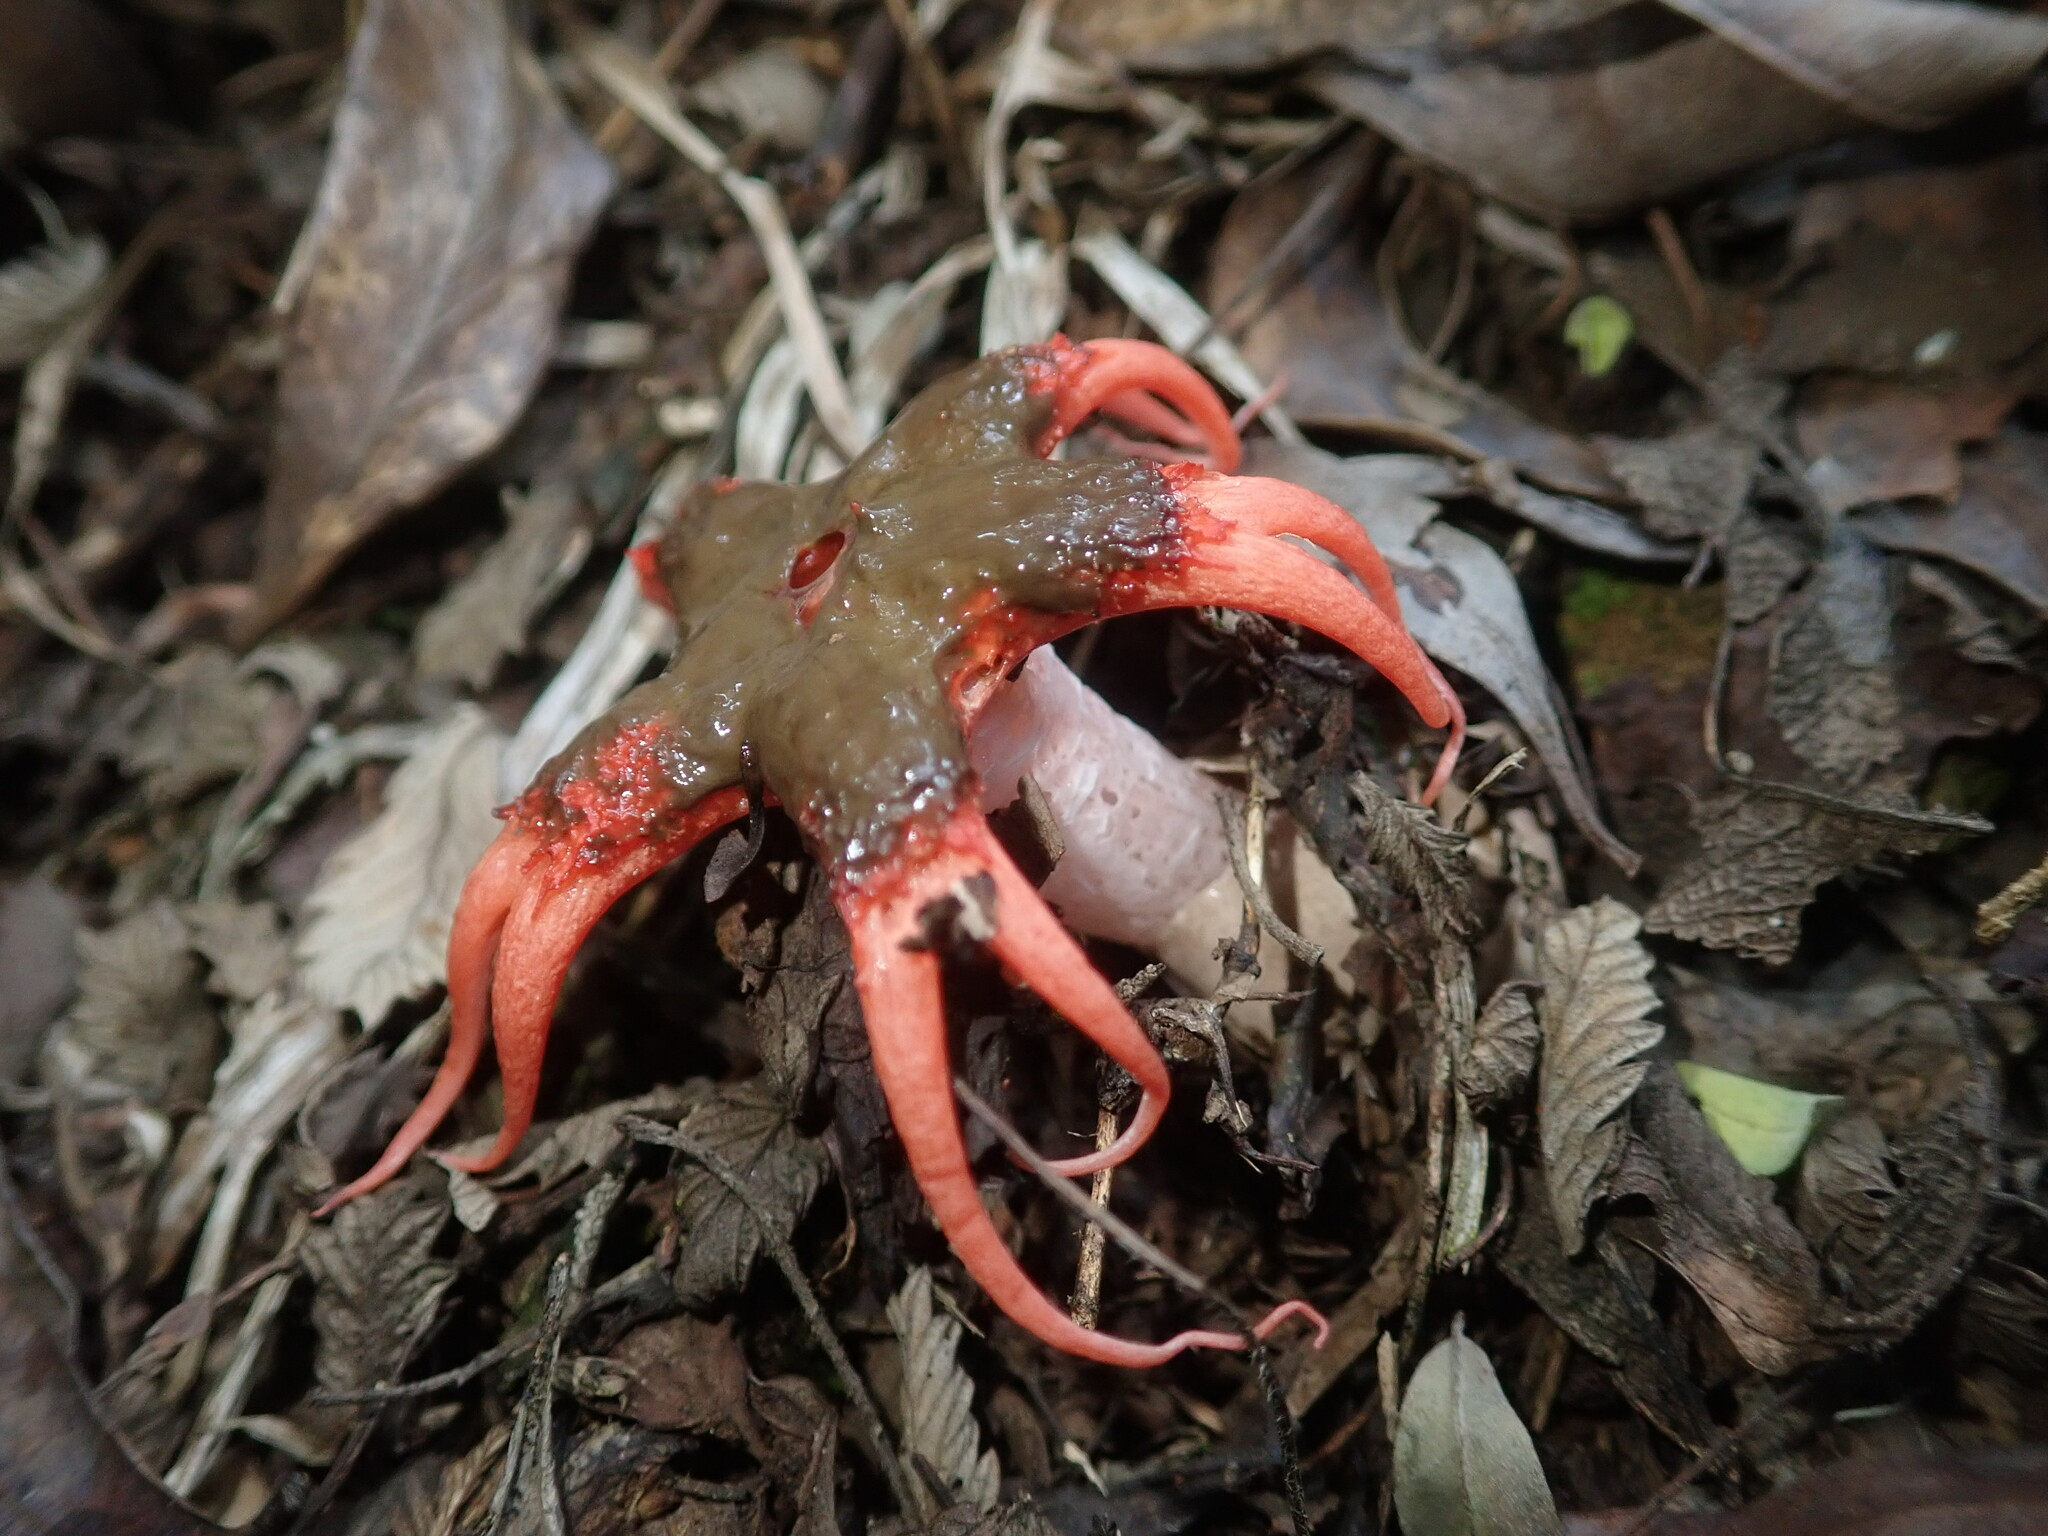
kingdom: Fungi
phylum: Basidiomycota
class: Agaricomycetes
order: Phallales
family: Phallaceae
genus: Aseroe
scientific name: Aseroe rubra
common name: Starfish fungus
